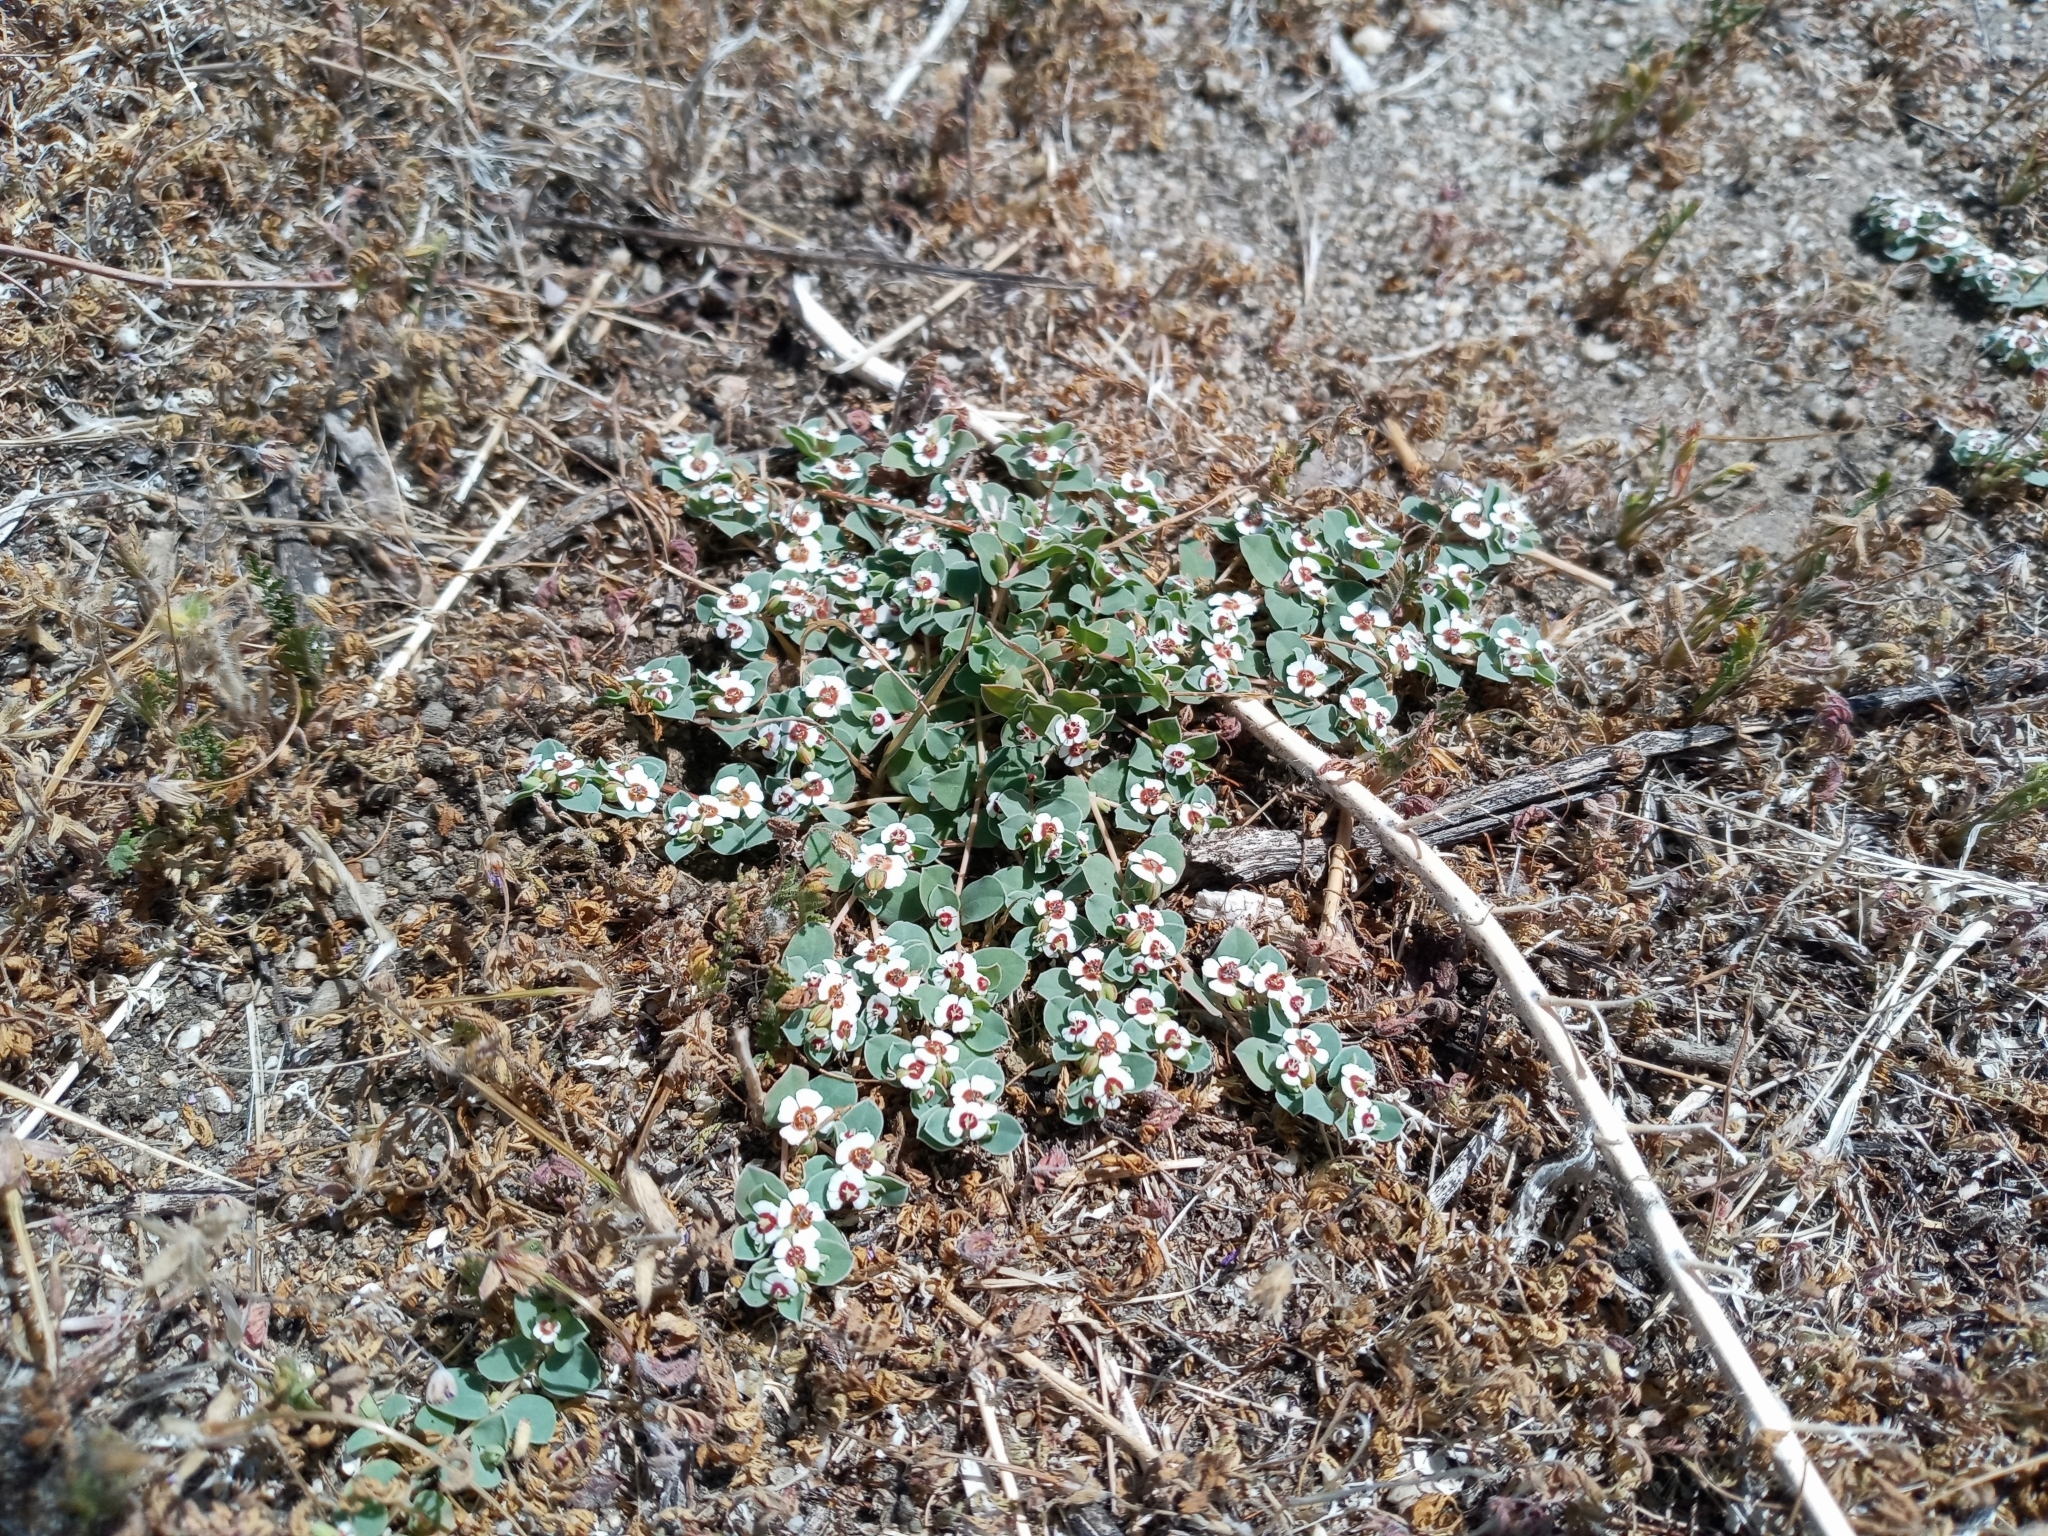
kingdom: Plantae
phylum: Tracheophyta
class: Magnoliopsida
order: Malpighiales
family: Euphorbiaceae
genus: Euphorbia
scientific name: Euphorbia albomarginata
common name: Whitemargin sandmat
